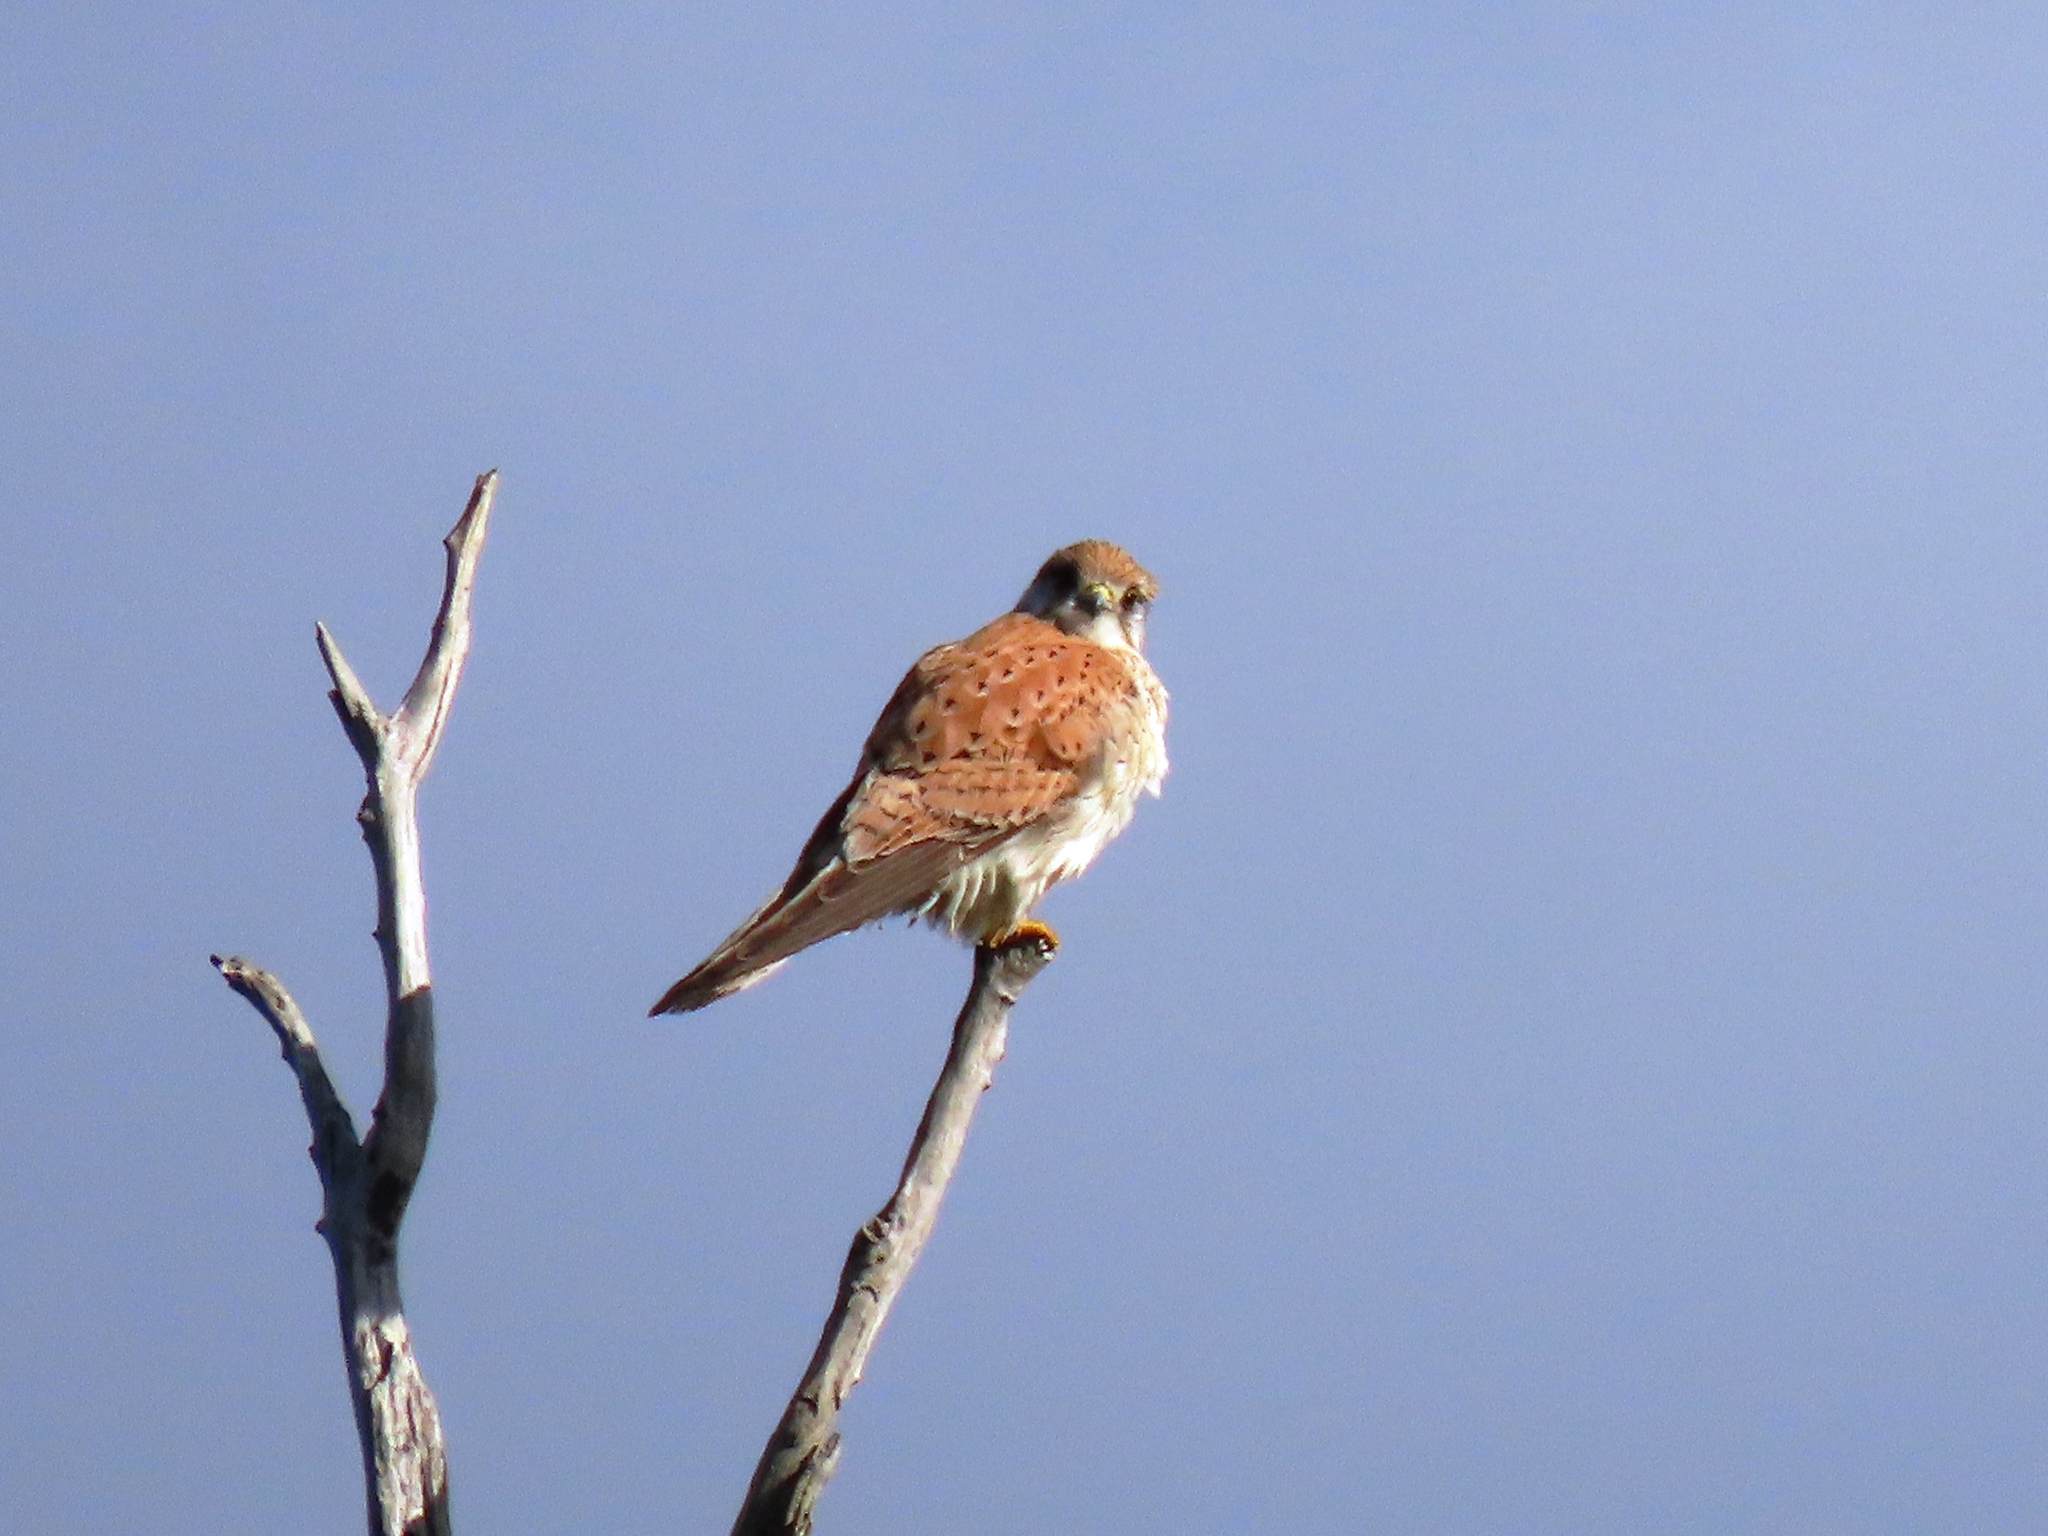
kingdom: Animalia
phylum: Chordata
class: Aves
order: Falconiformes
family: Falconidae
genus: Falco
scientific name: Falco cenchroides
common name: Nankeen kestrel
